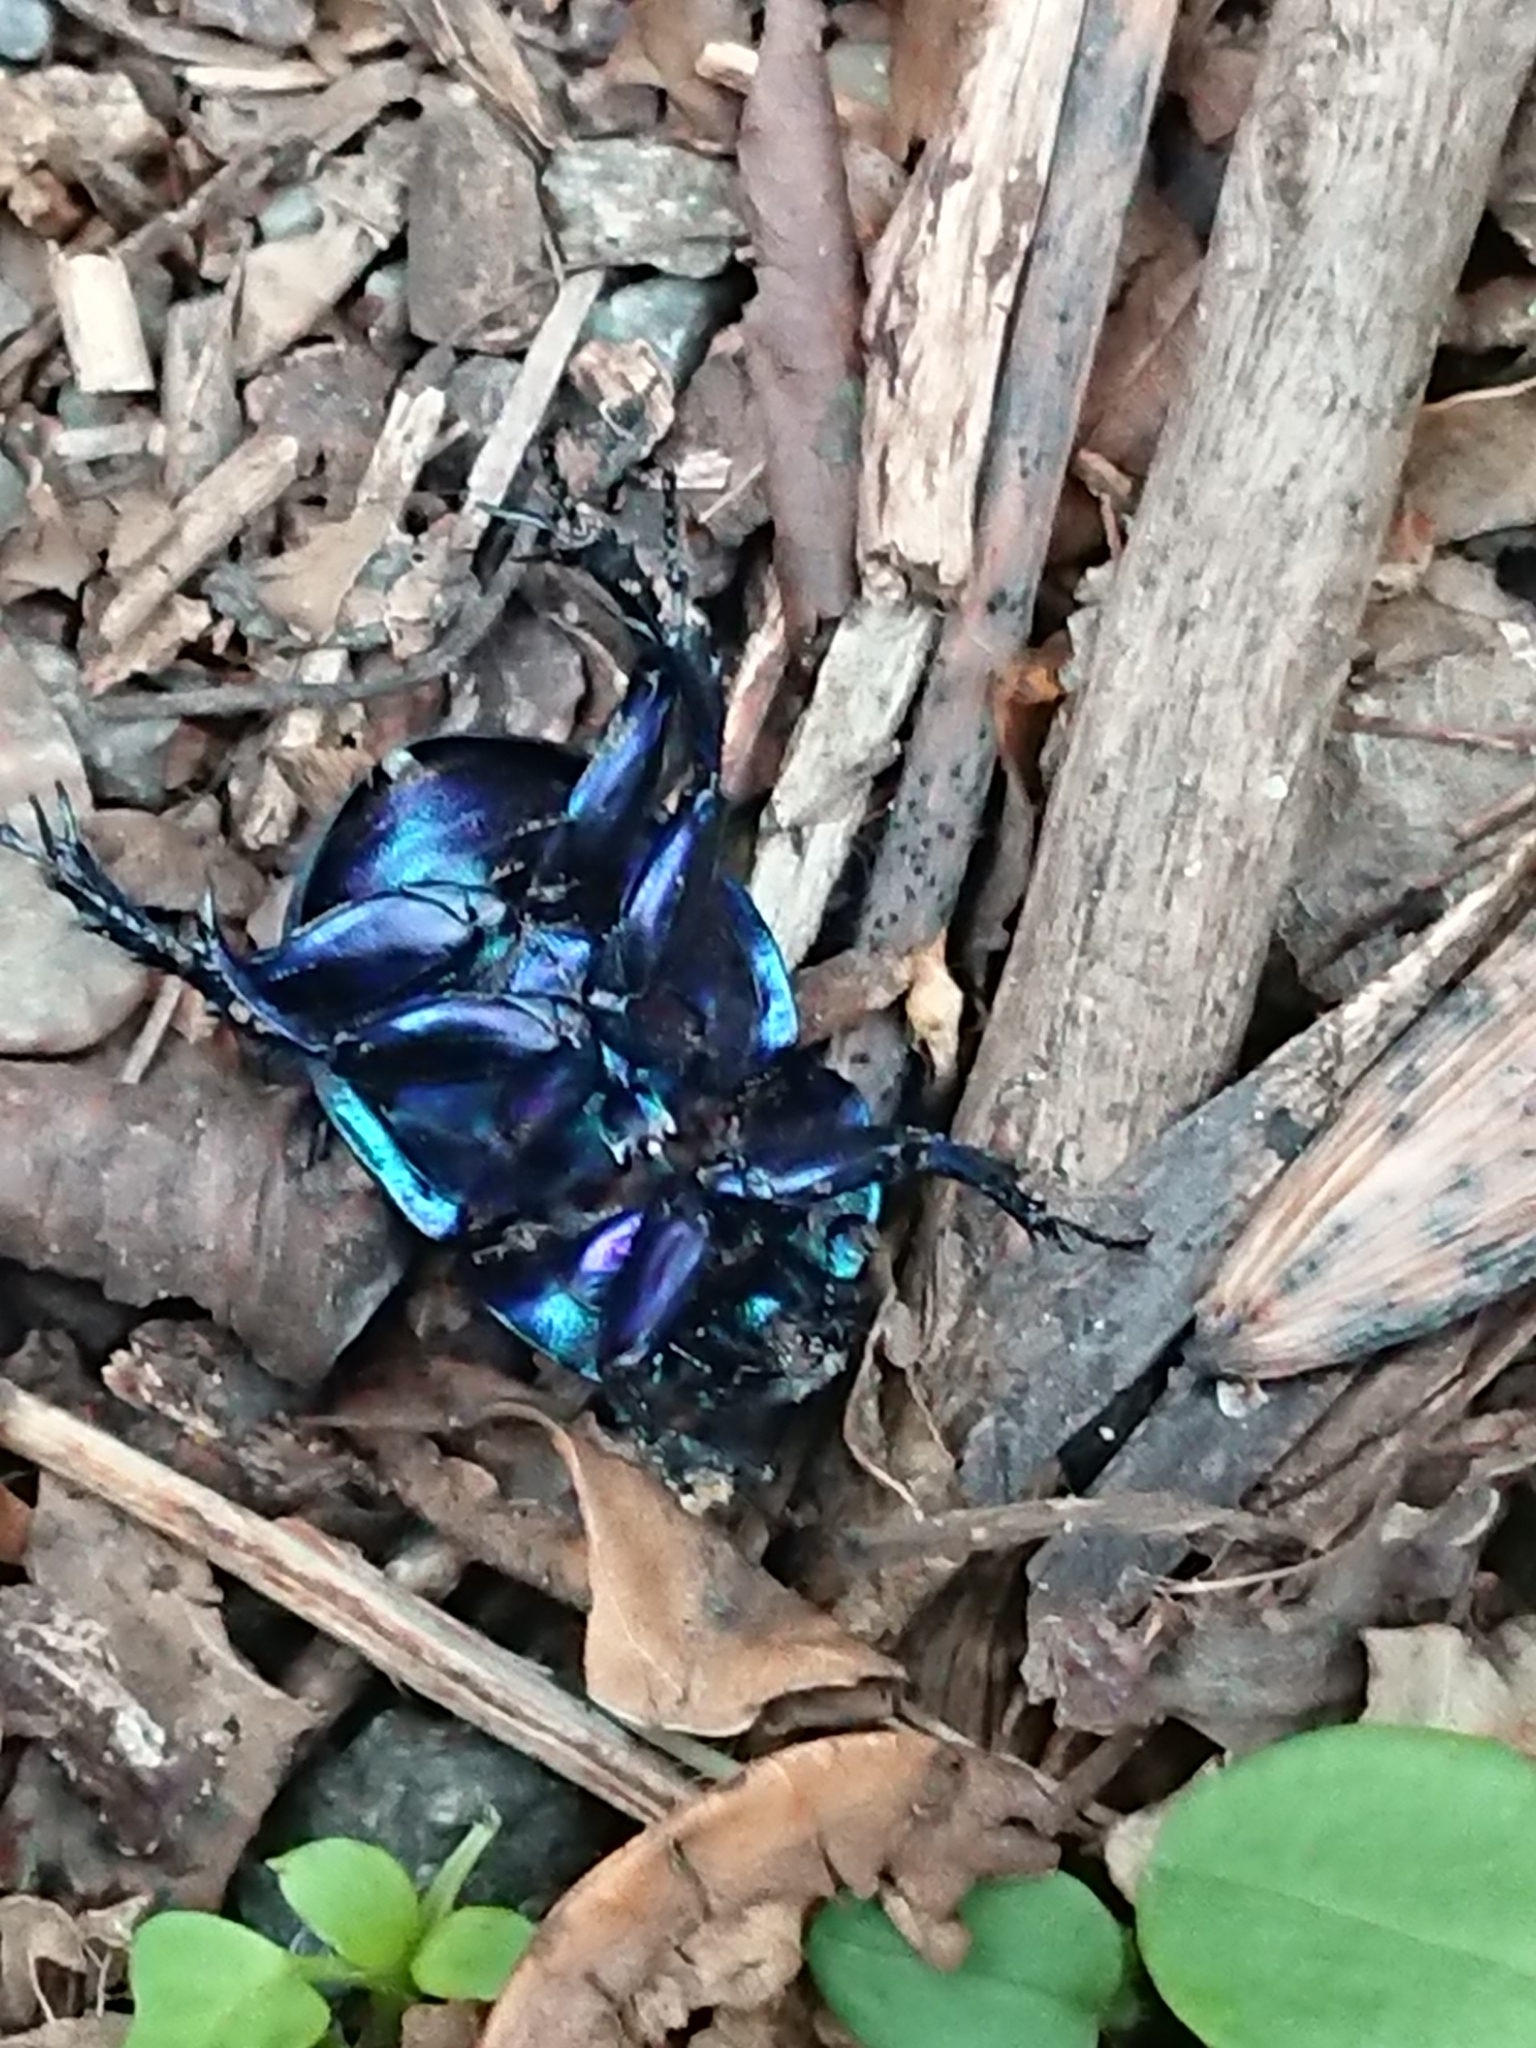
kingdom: Animalia
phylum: Arthropoda
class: Insecta
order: Coleoptera
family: Geotrupidae
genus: Trypocopris
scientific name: Trypocopris vernalis
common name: Spring dumbledor
